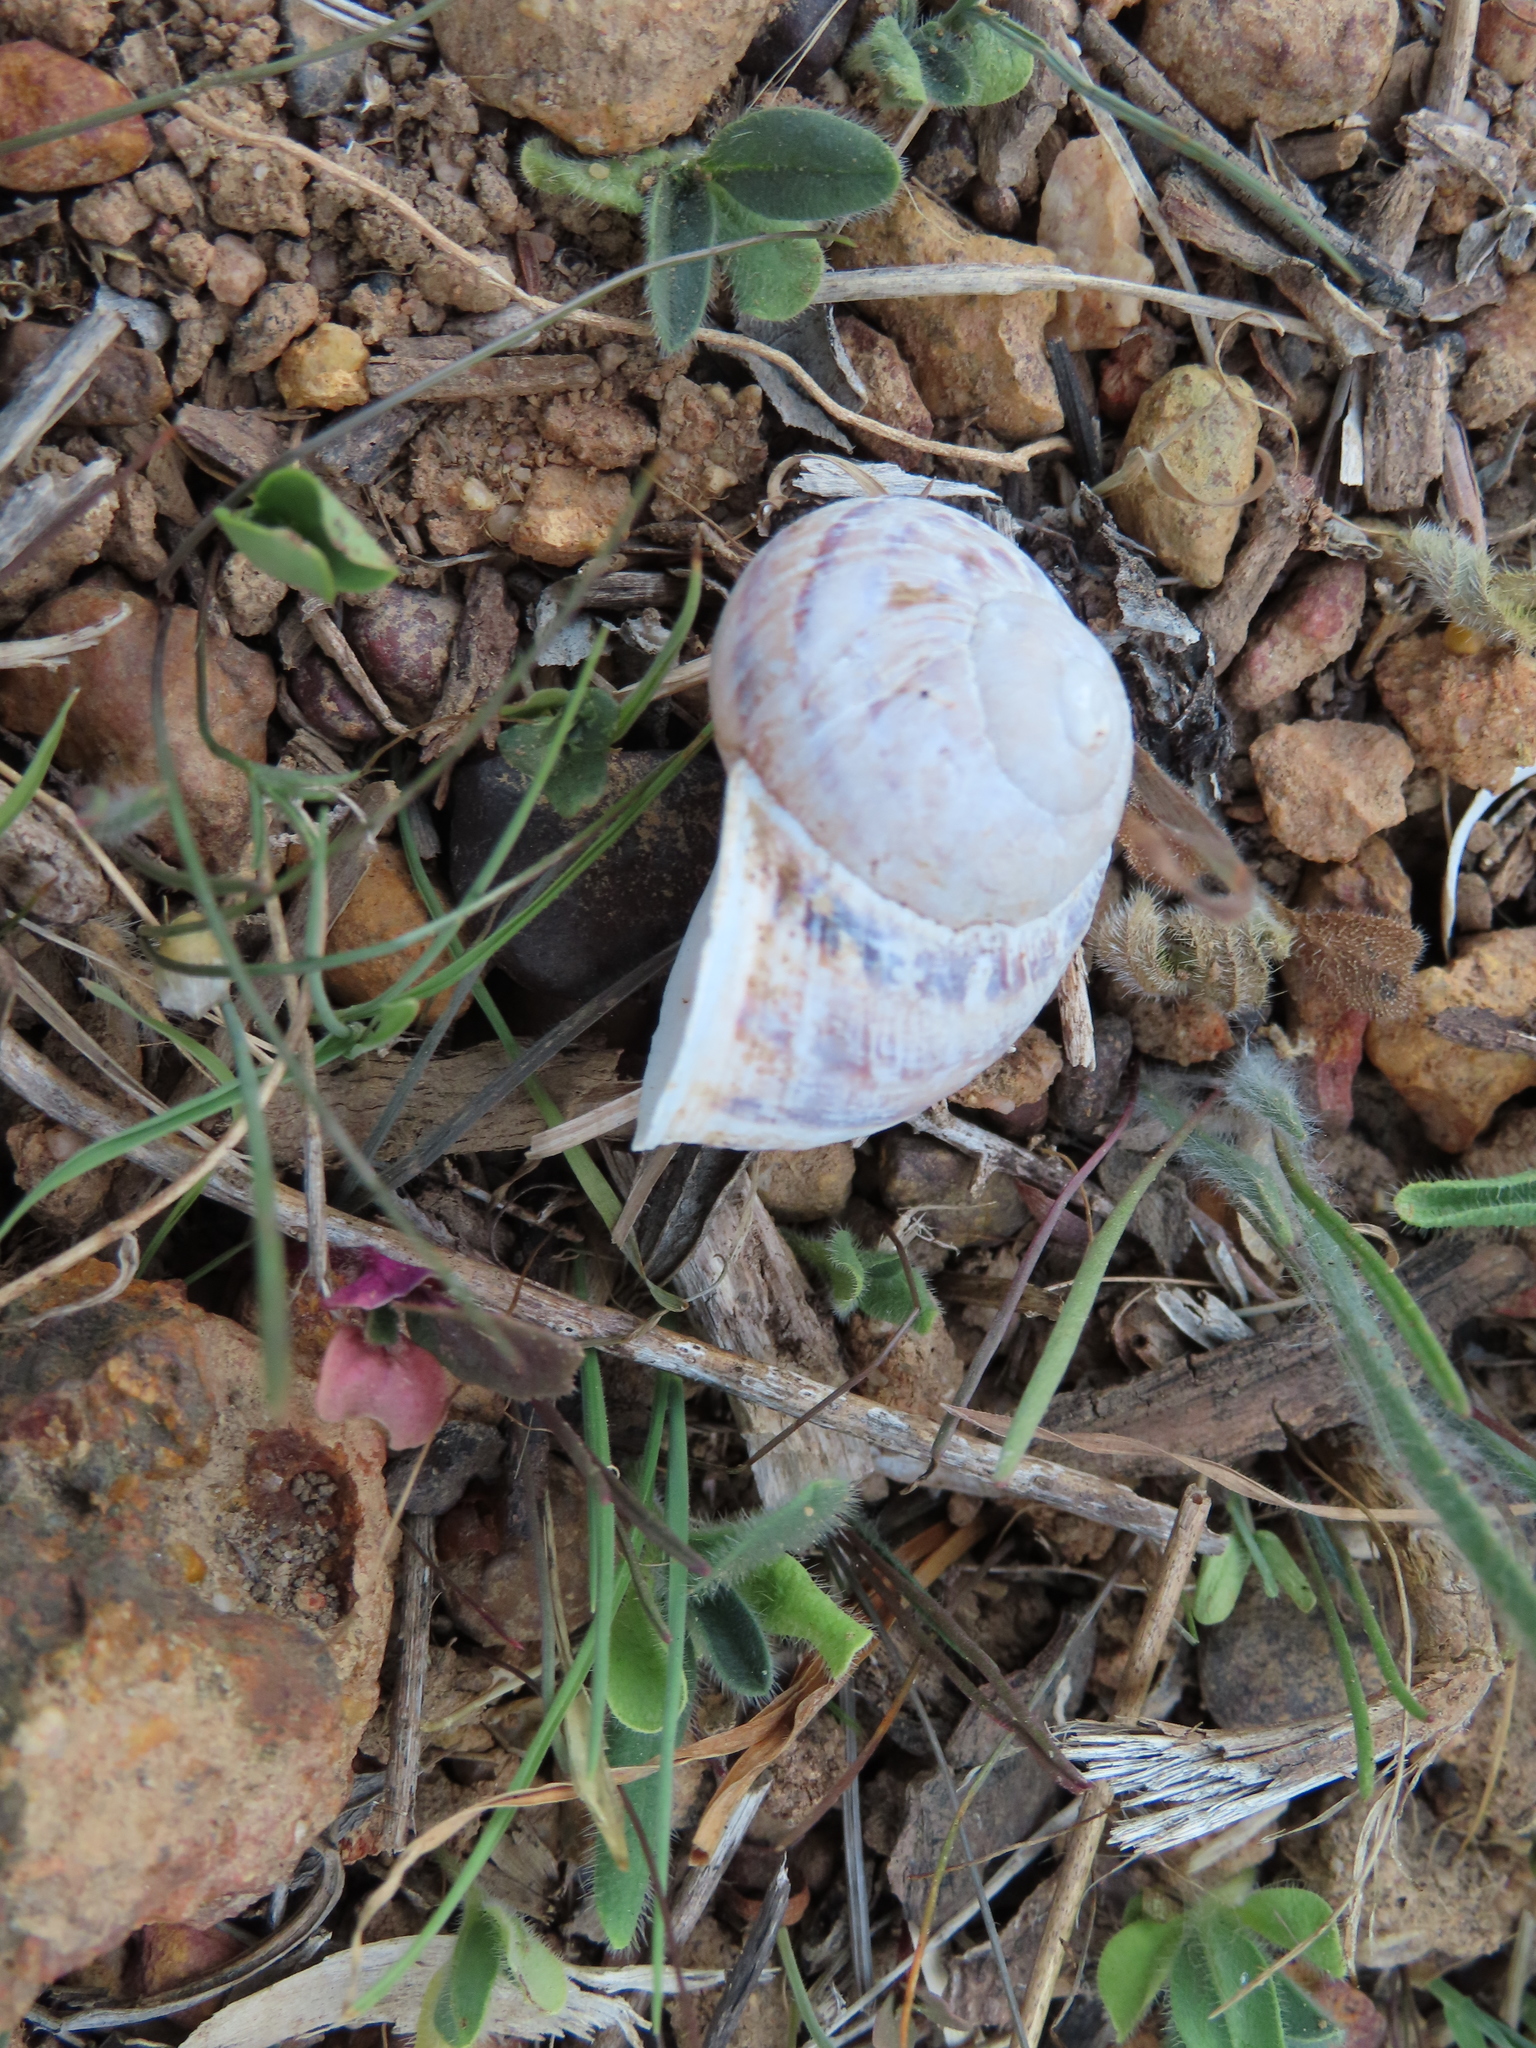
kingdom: Animalia
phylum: Mollusca
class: Gastropoda
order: Stylommatophora
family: Helicidae
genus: Cornu
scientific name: Cornu aspersum
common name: Brown garden snail
